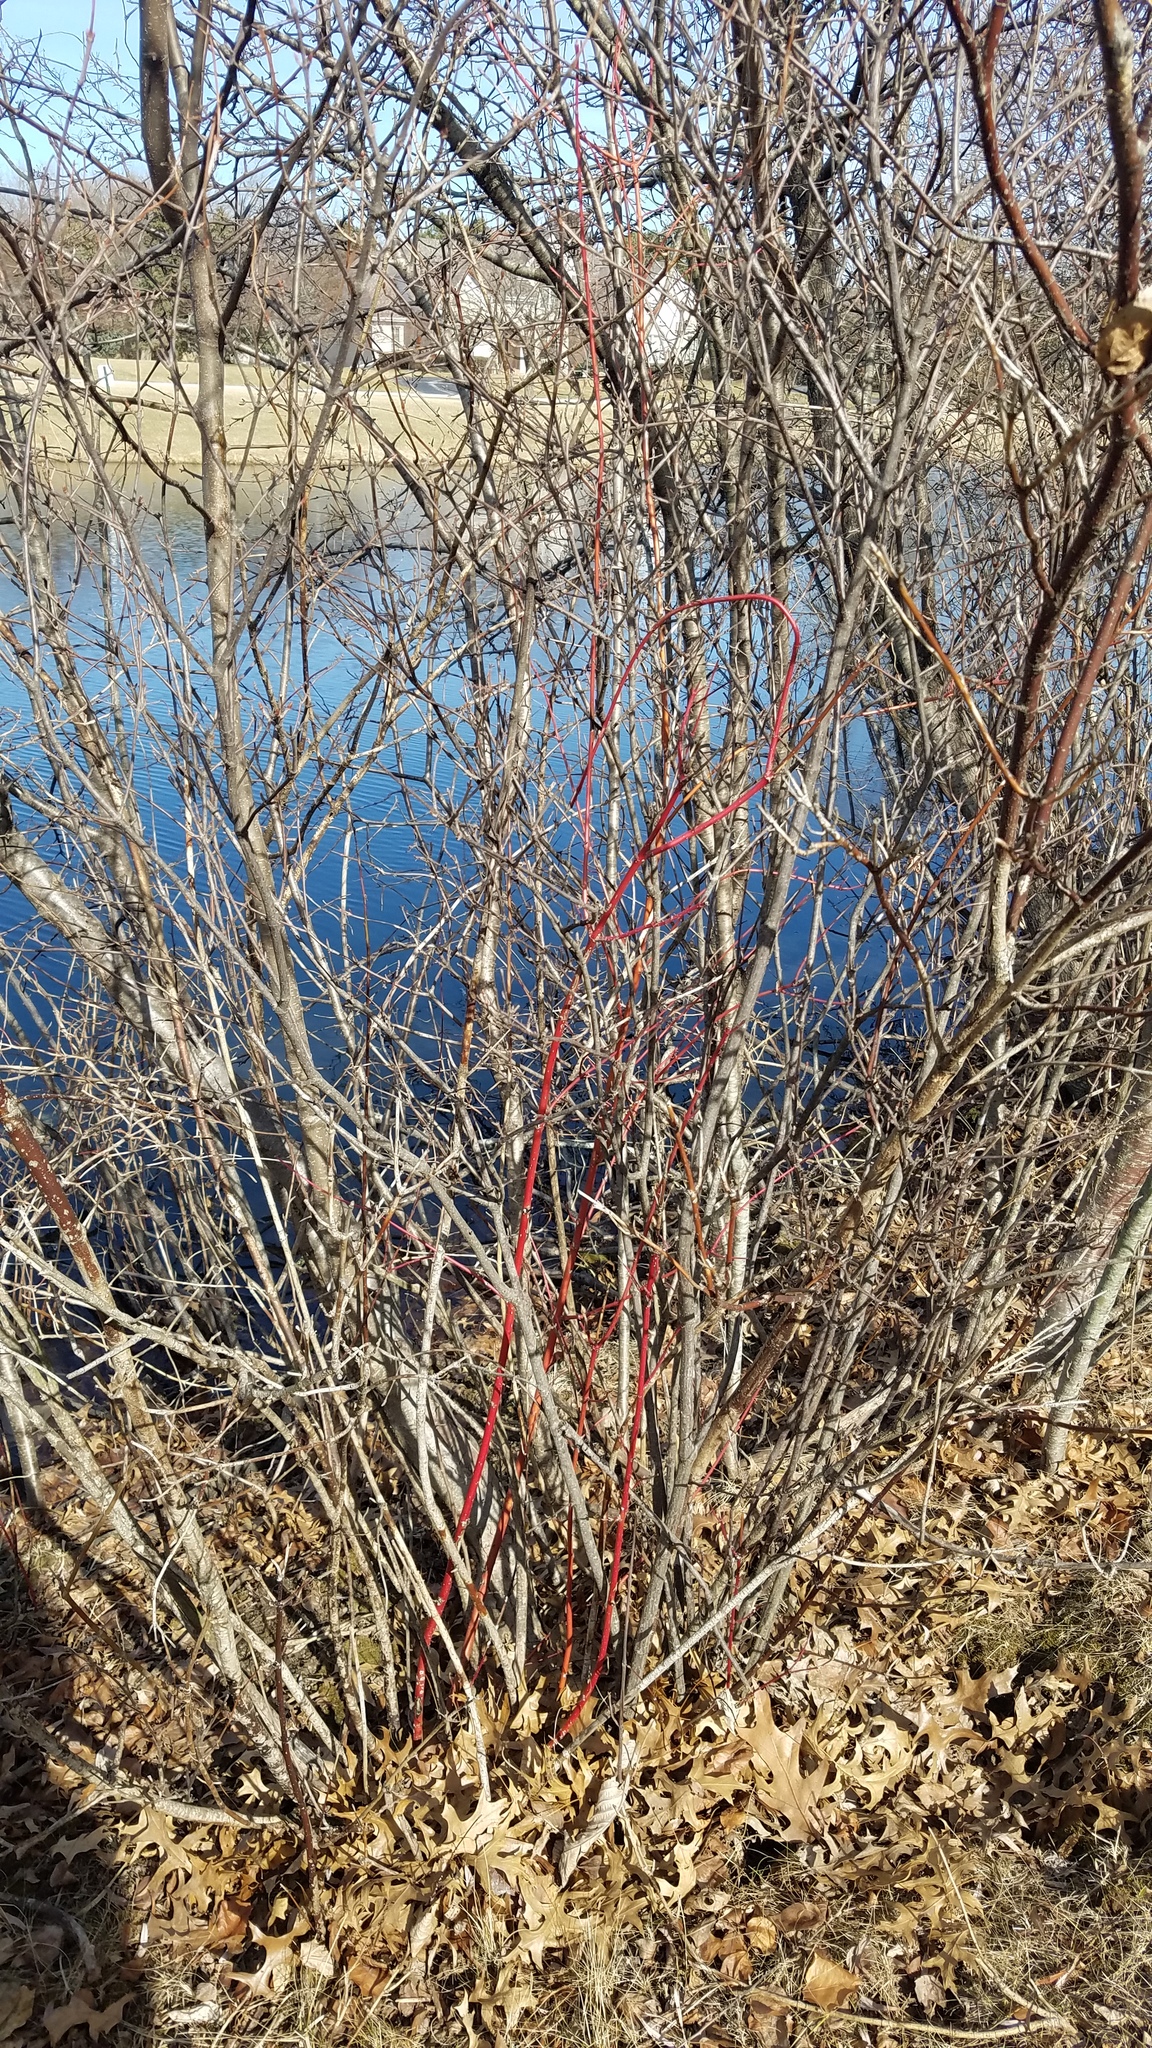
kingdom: Plantae
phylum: Tracheophyta
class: Magnoliopsida
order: Cornales
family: Cornaceae
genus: Cornus
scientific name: Cornus sericea
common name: Red-osier dogwood
